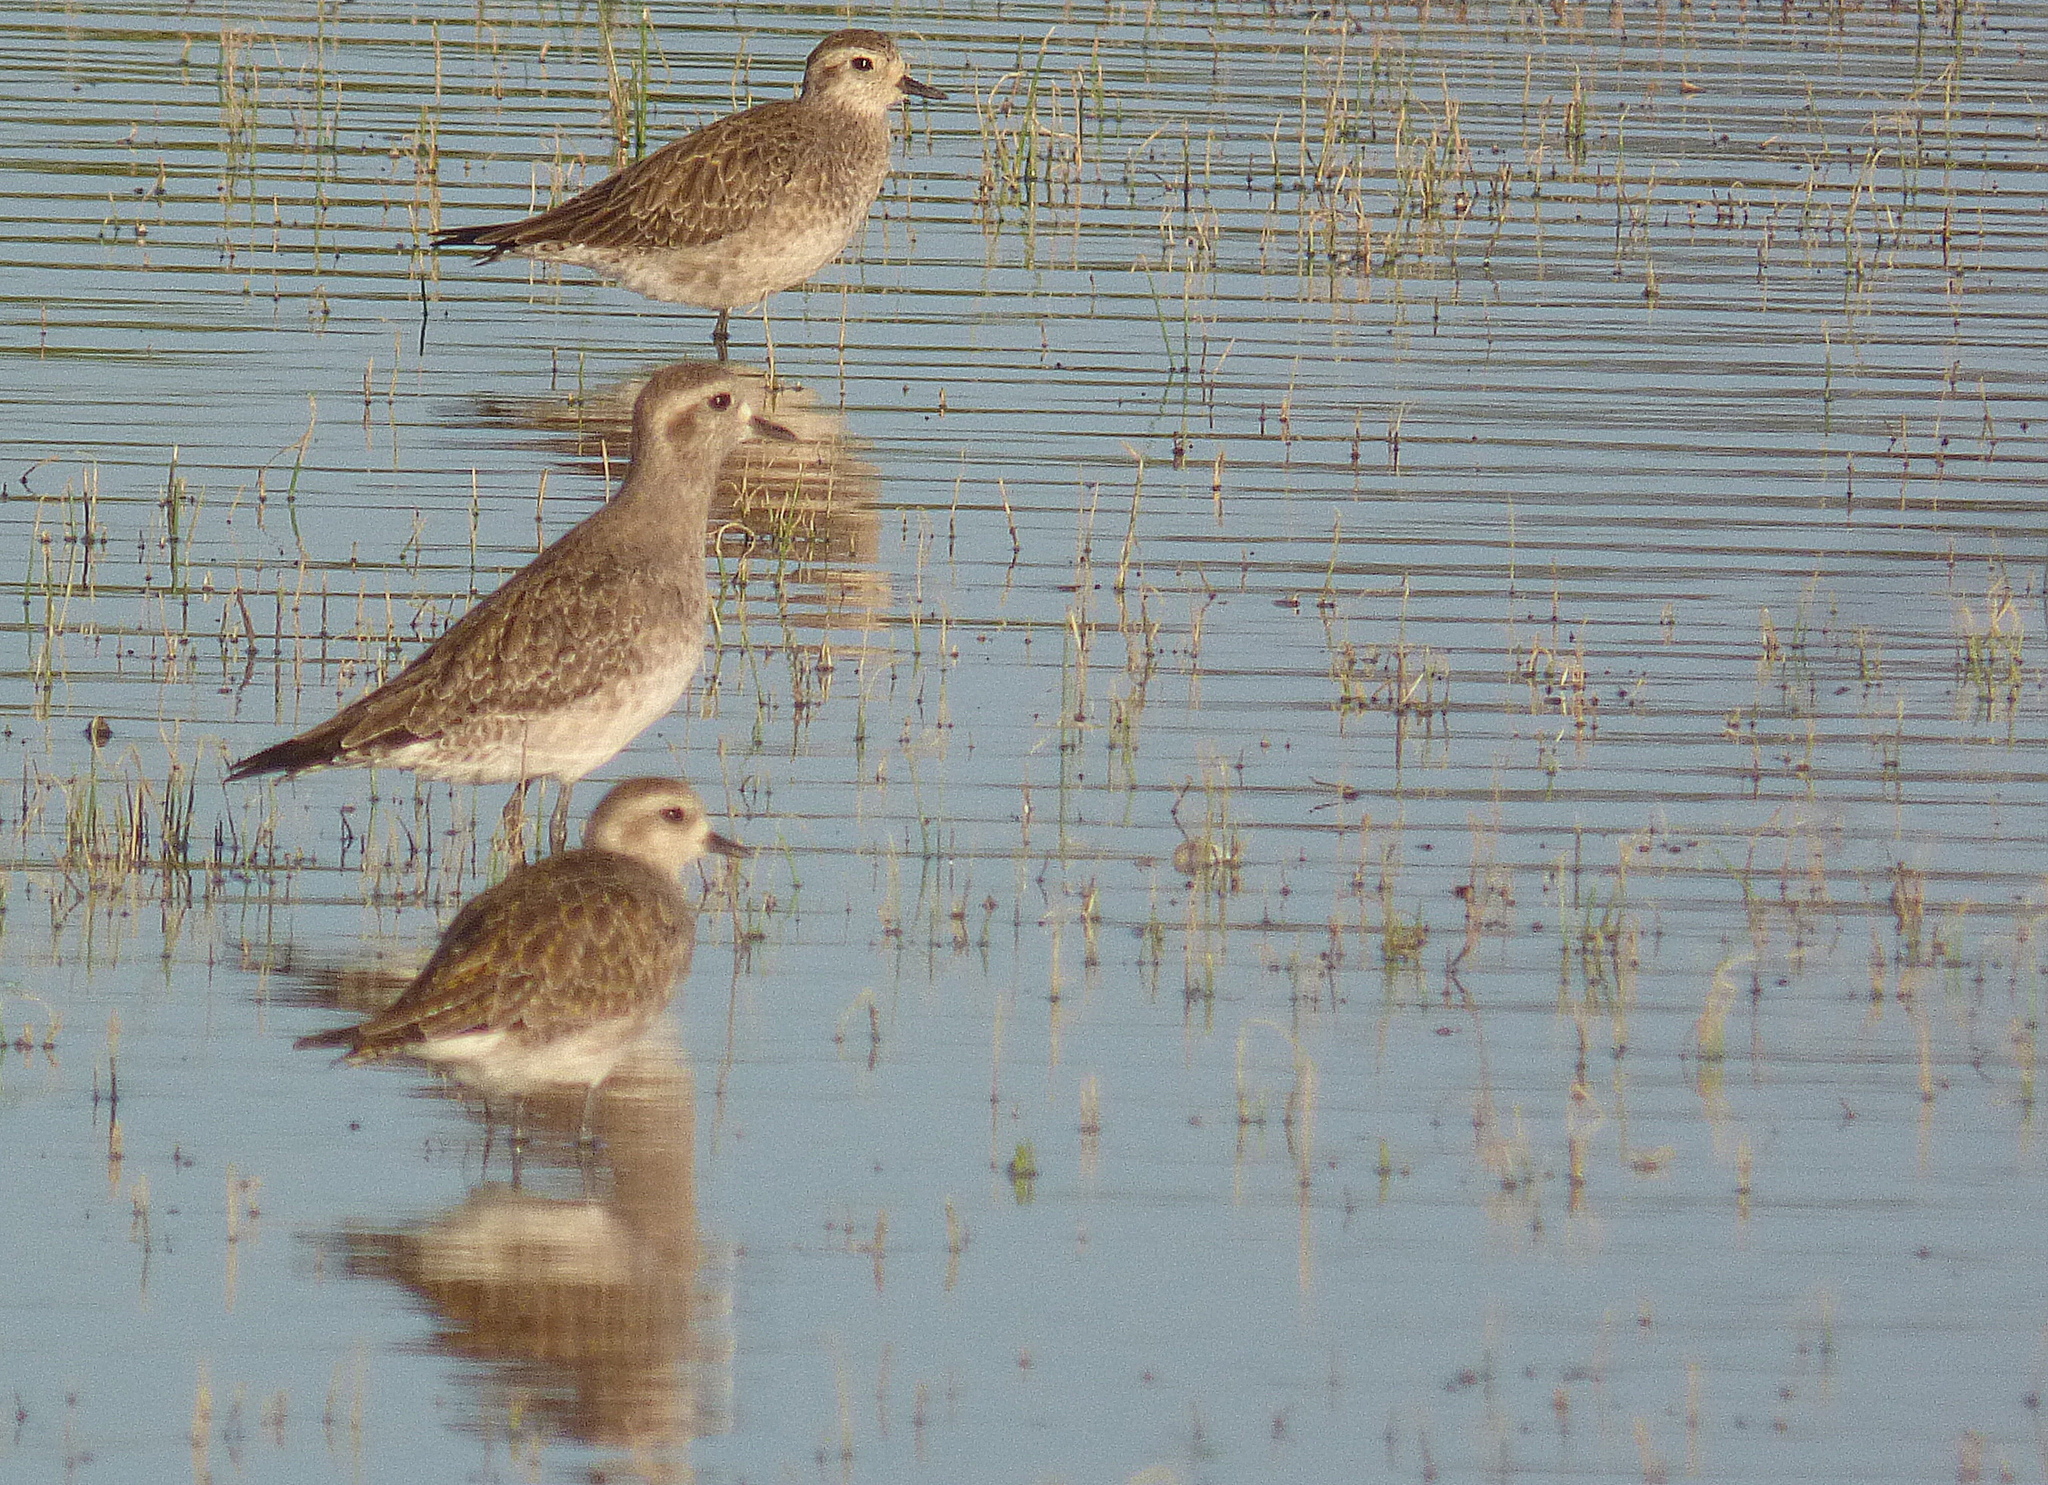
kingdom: Animalia
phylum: Chordata
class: Aves
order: Charadriiformes
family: Charadriidae
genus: Pluvialis
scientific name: Pluvialis dominica
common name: American golden plover
